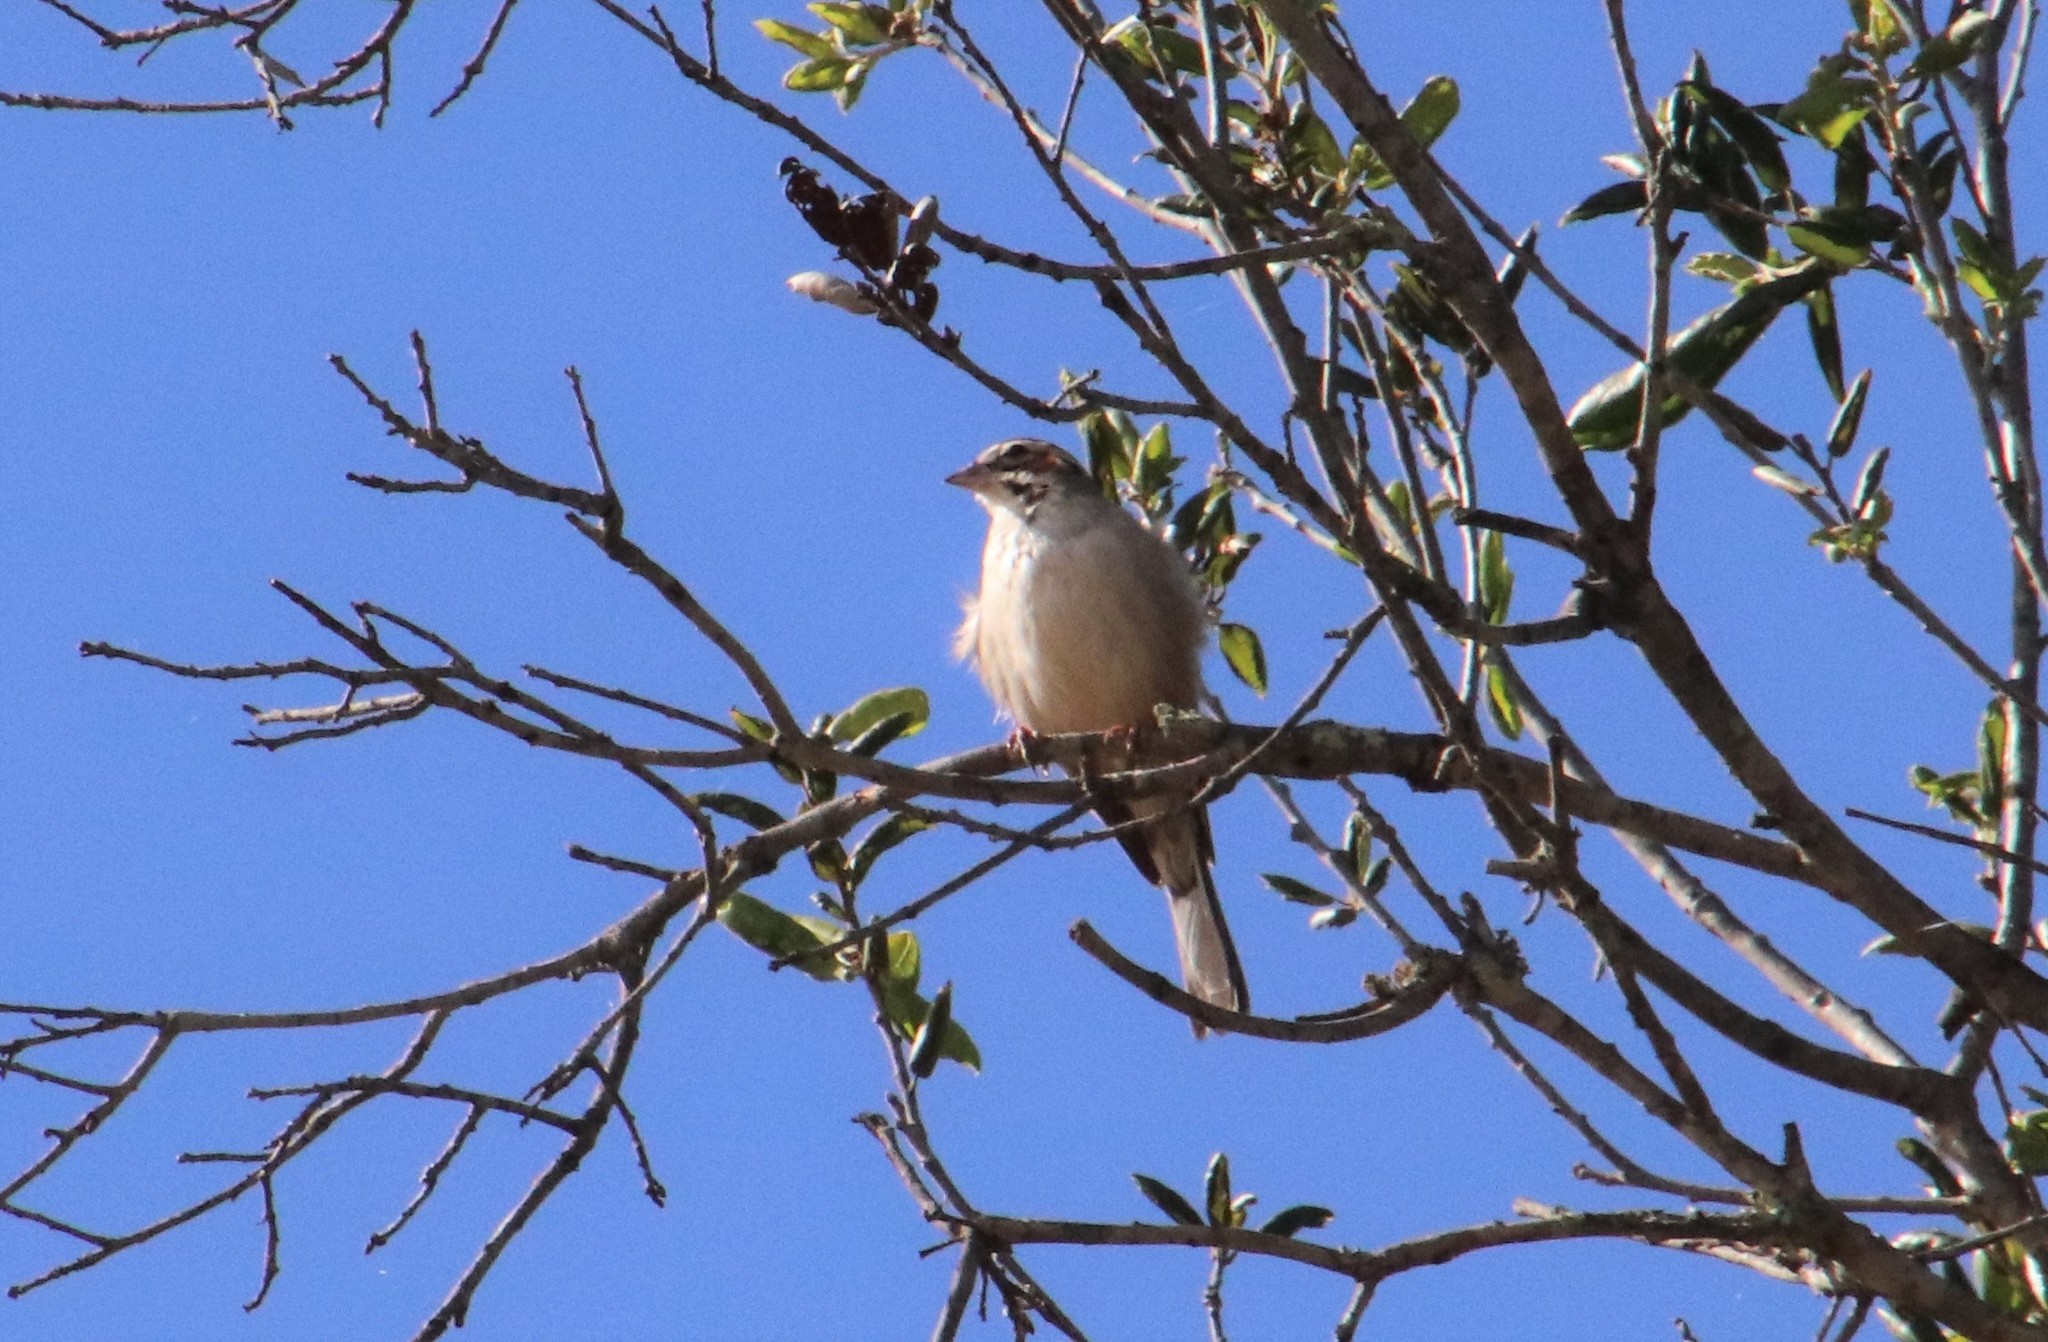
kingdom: Animalia
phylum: Chordata
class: Aves
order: Passeriformes
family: Passerellidae
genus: Chondestes
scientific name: Chondestes grammacus
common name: Lark sparrow
